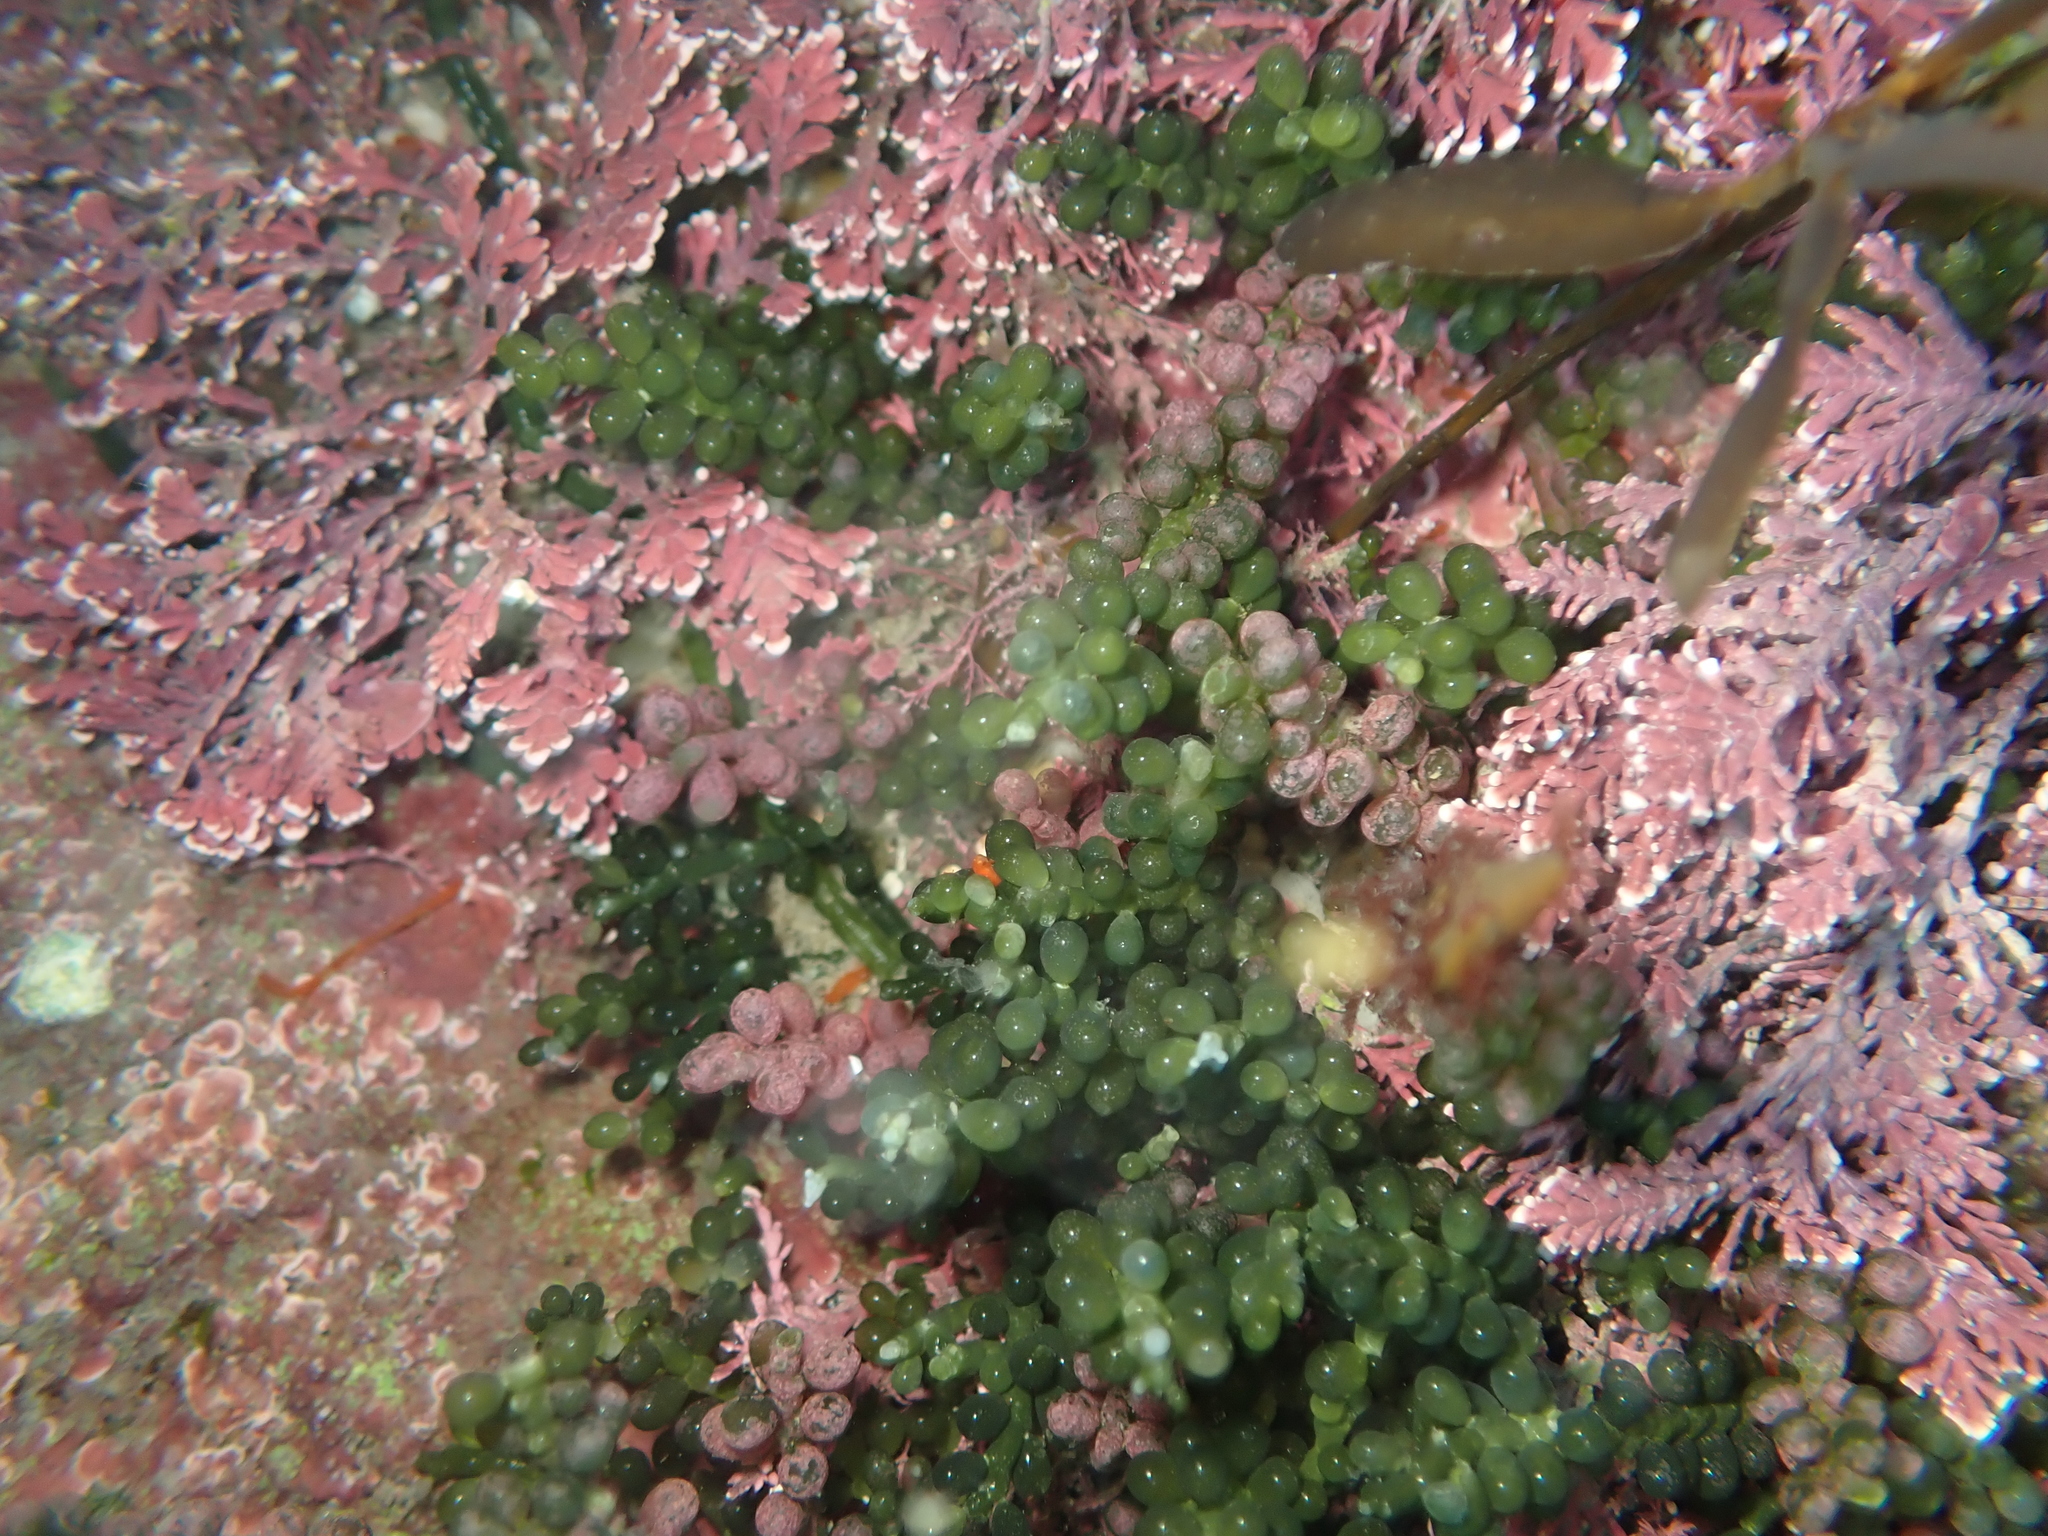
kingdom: Animalia
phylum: Xenacoelomorpha
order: Acoela
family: Convolutidae
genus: Polychoerus
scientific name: Polychoerus gordoni
